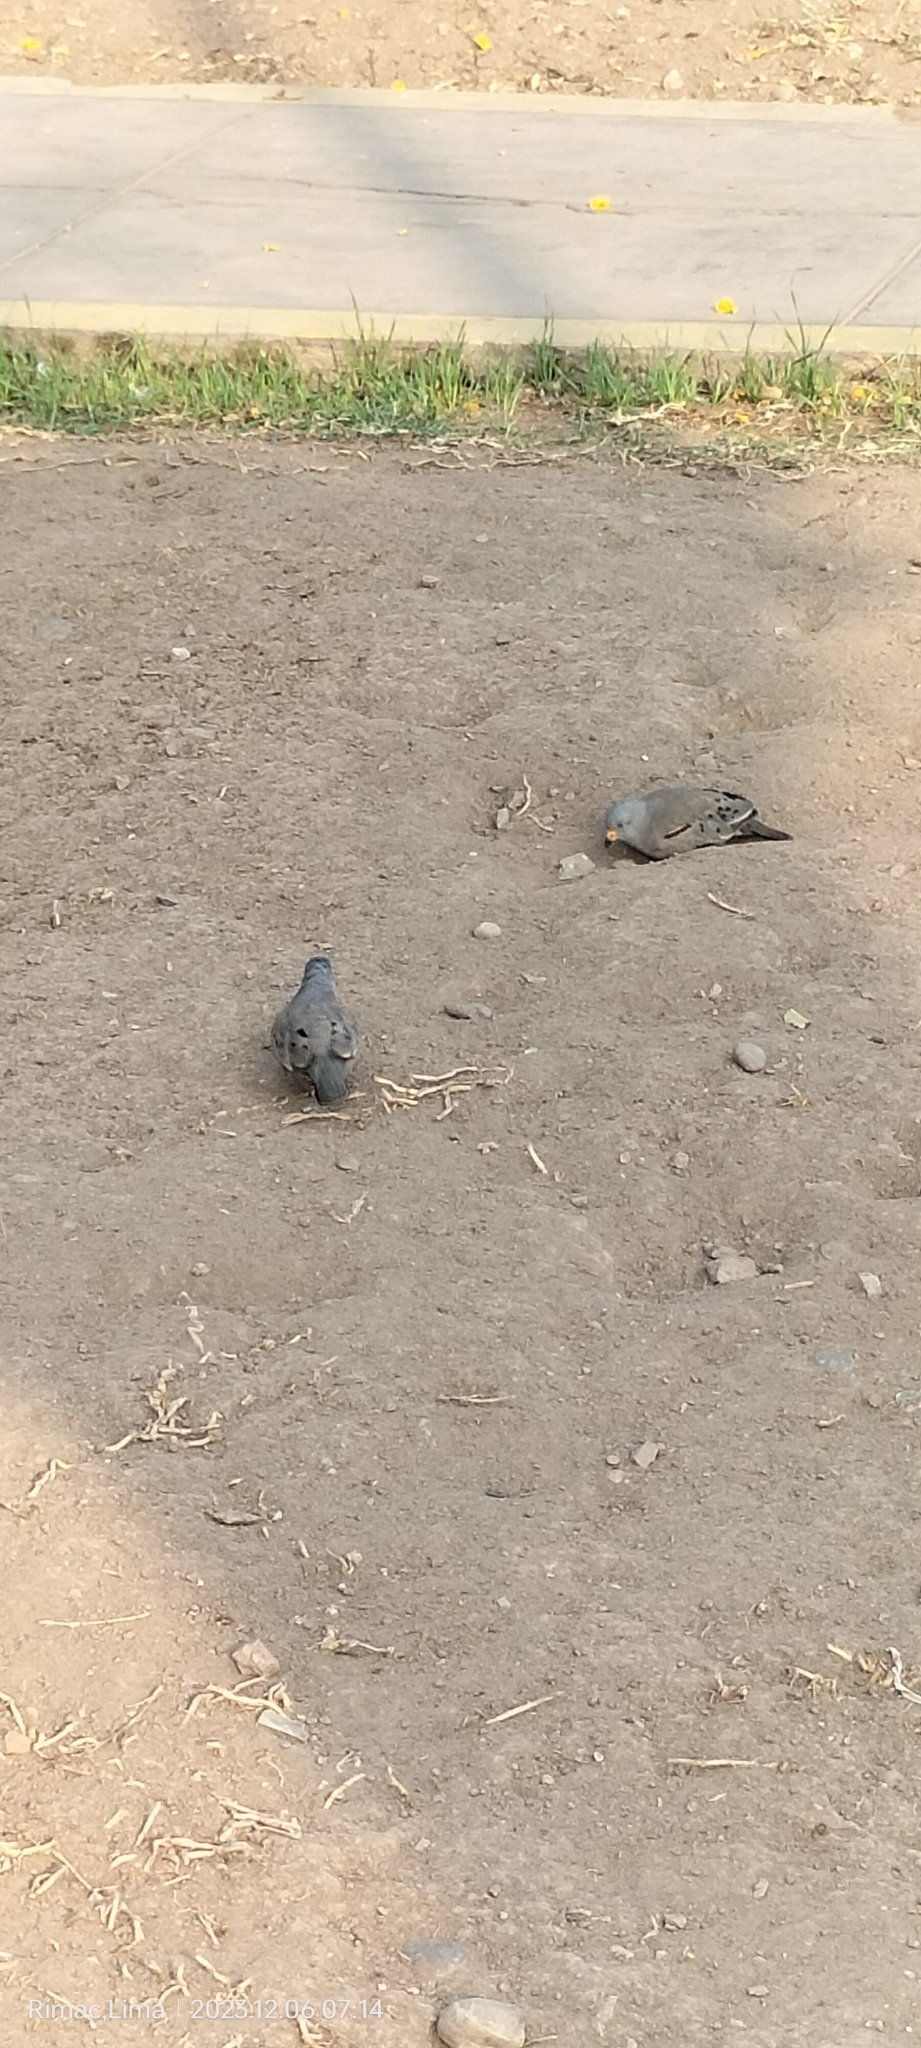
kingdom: Animalia
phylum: Chordata
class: Aves
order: Columbiformes
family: Columbidae
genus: Columbina
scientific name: Columbina cruziana
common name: Croaking ground dove
